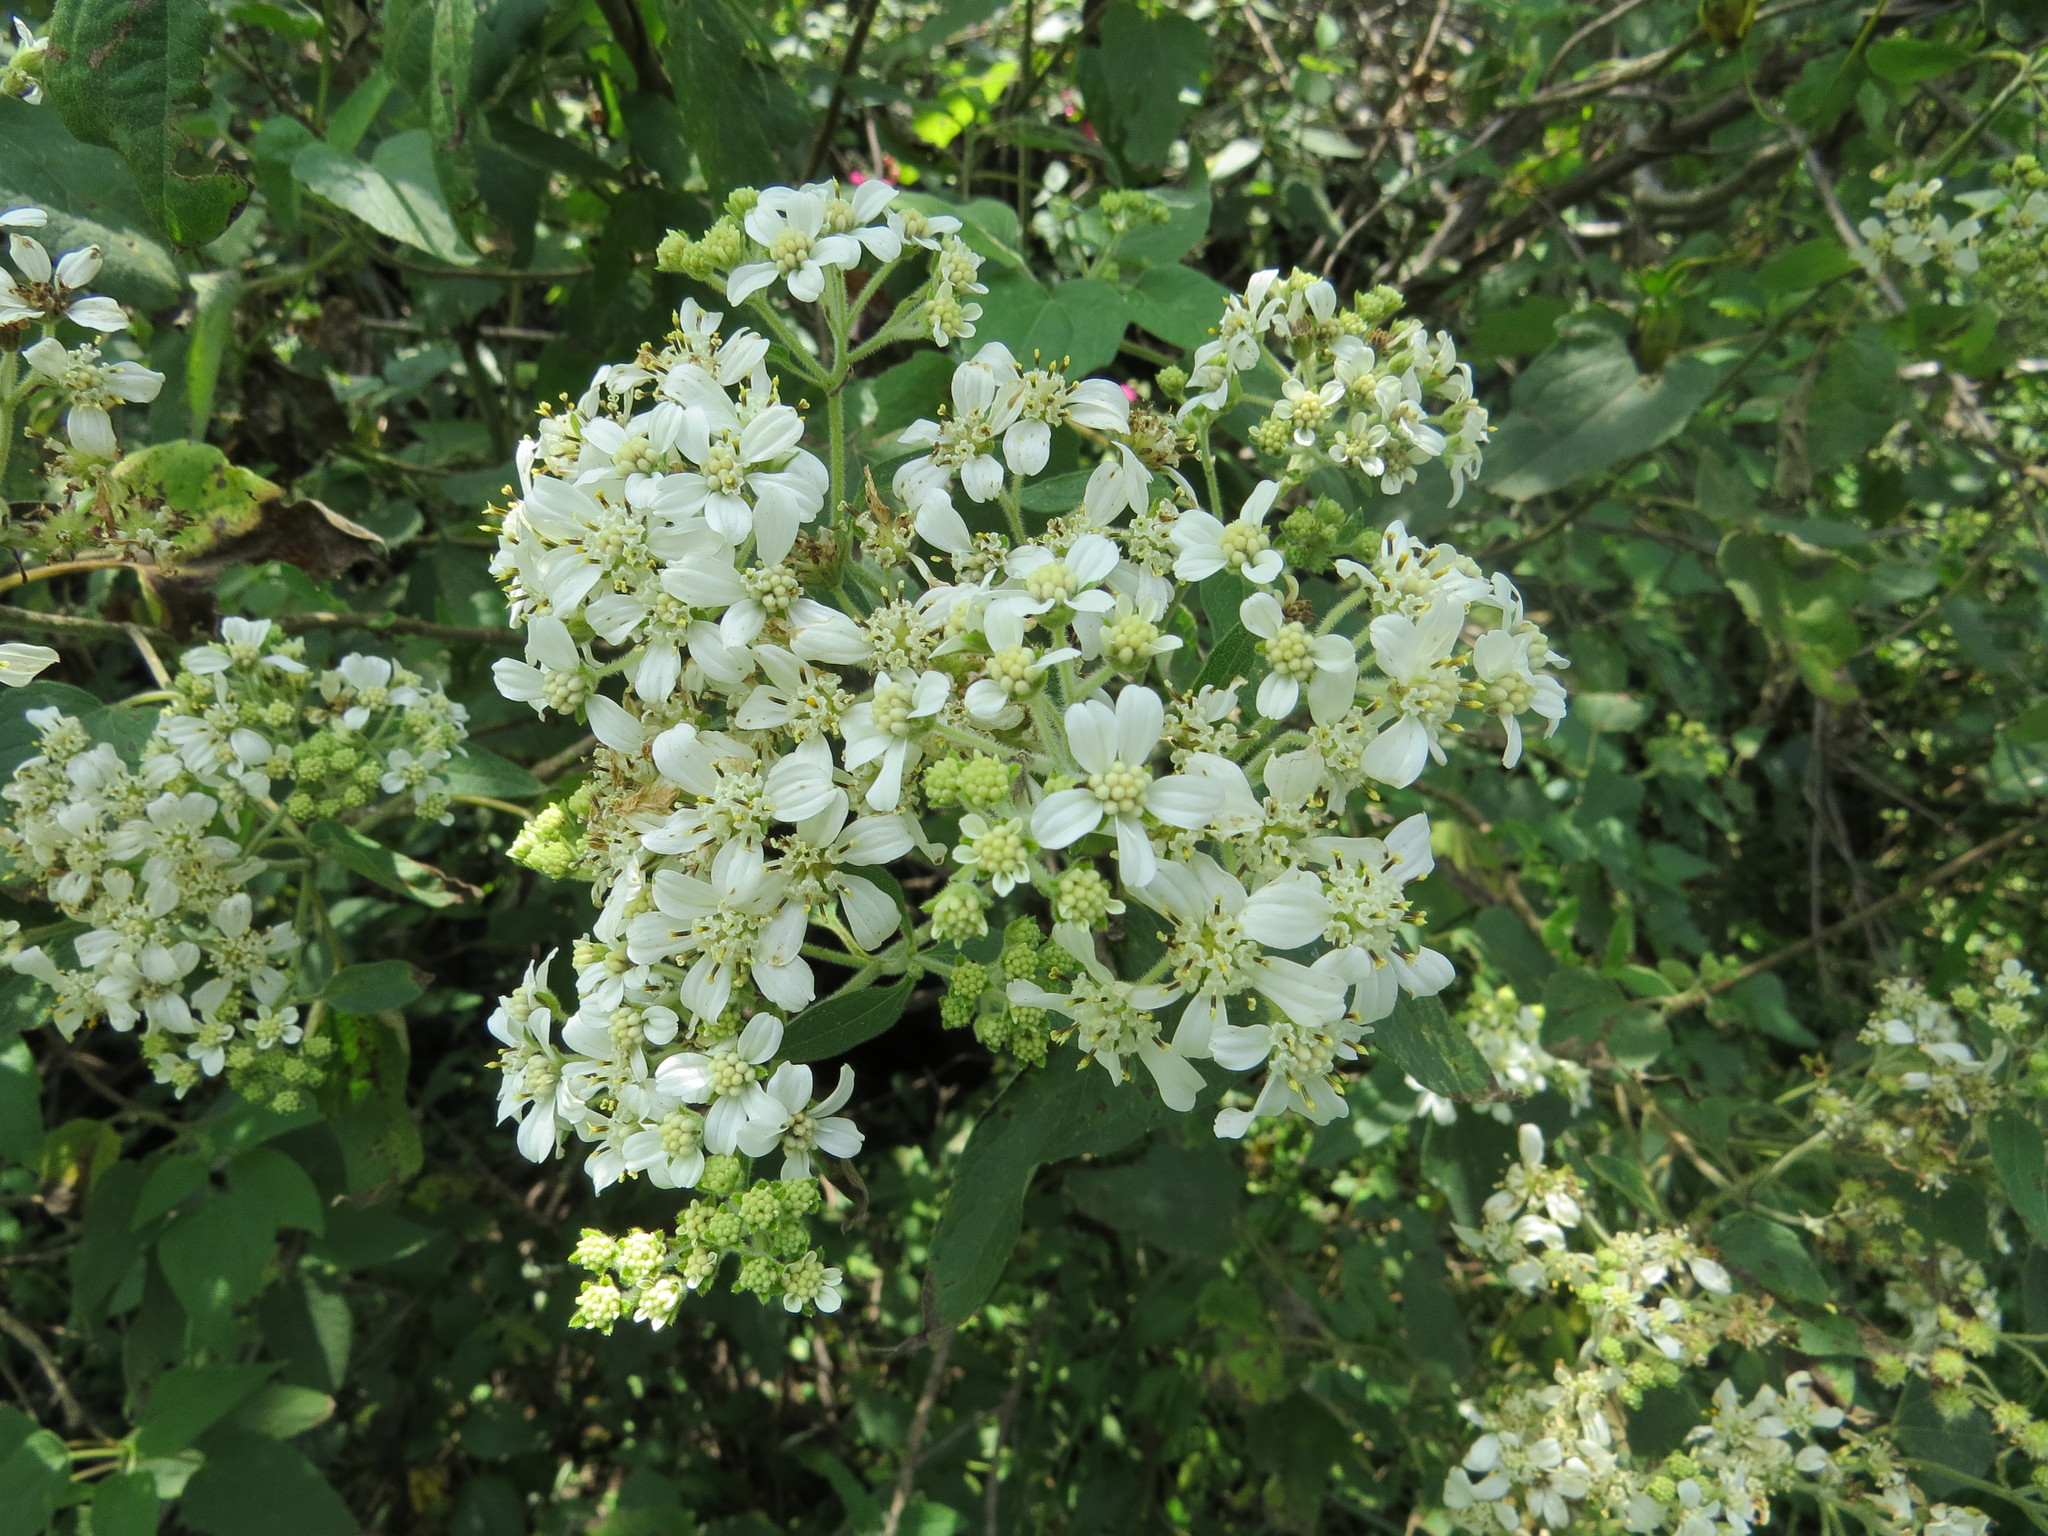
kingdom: Plantae
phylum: Tracheophyta
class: Magnoliopsida
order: Asterales
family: Asteraceae
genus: Montanoa
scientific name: Montanoa tomentosa
